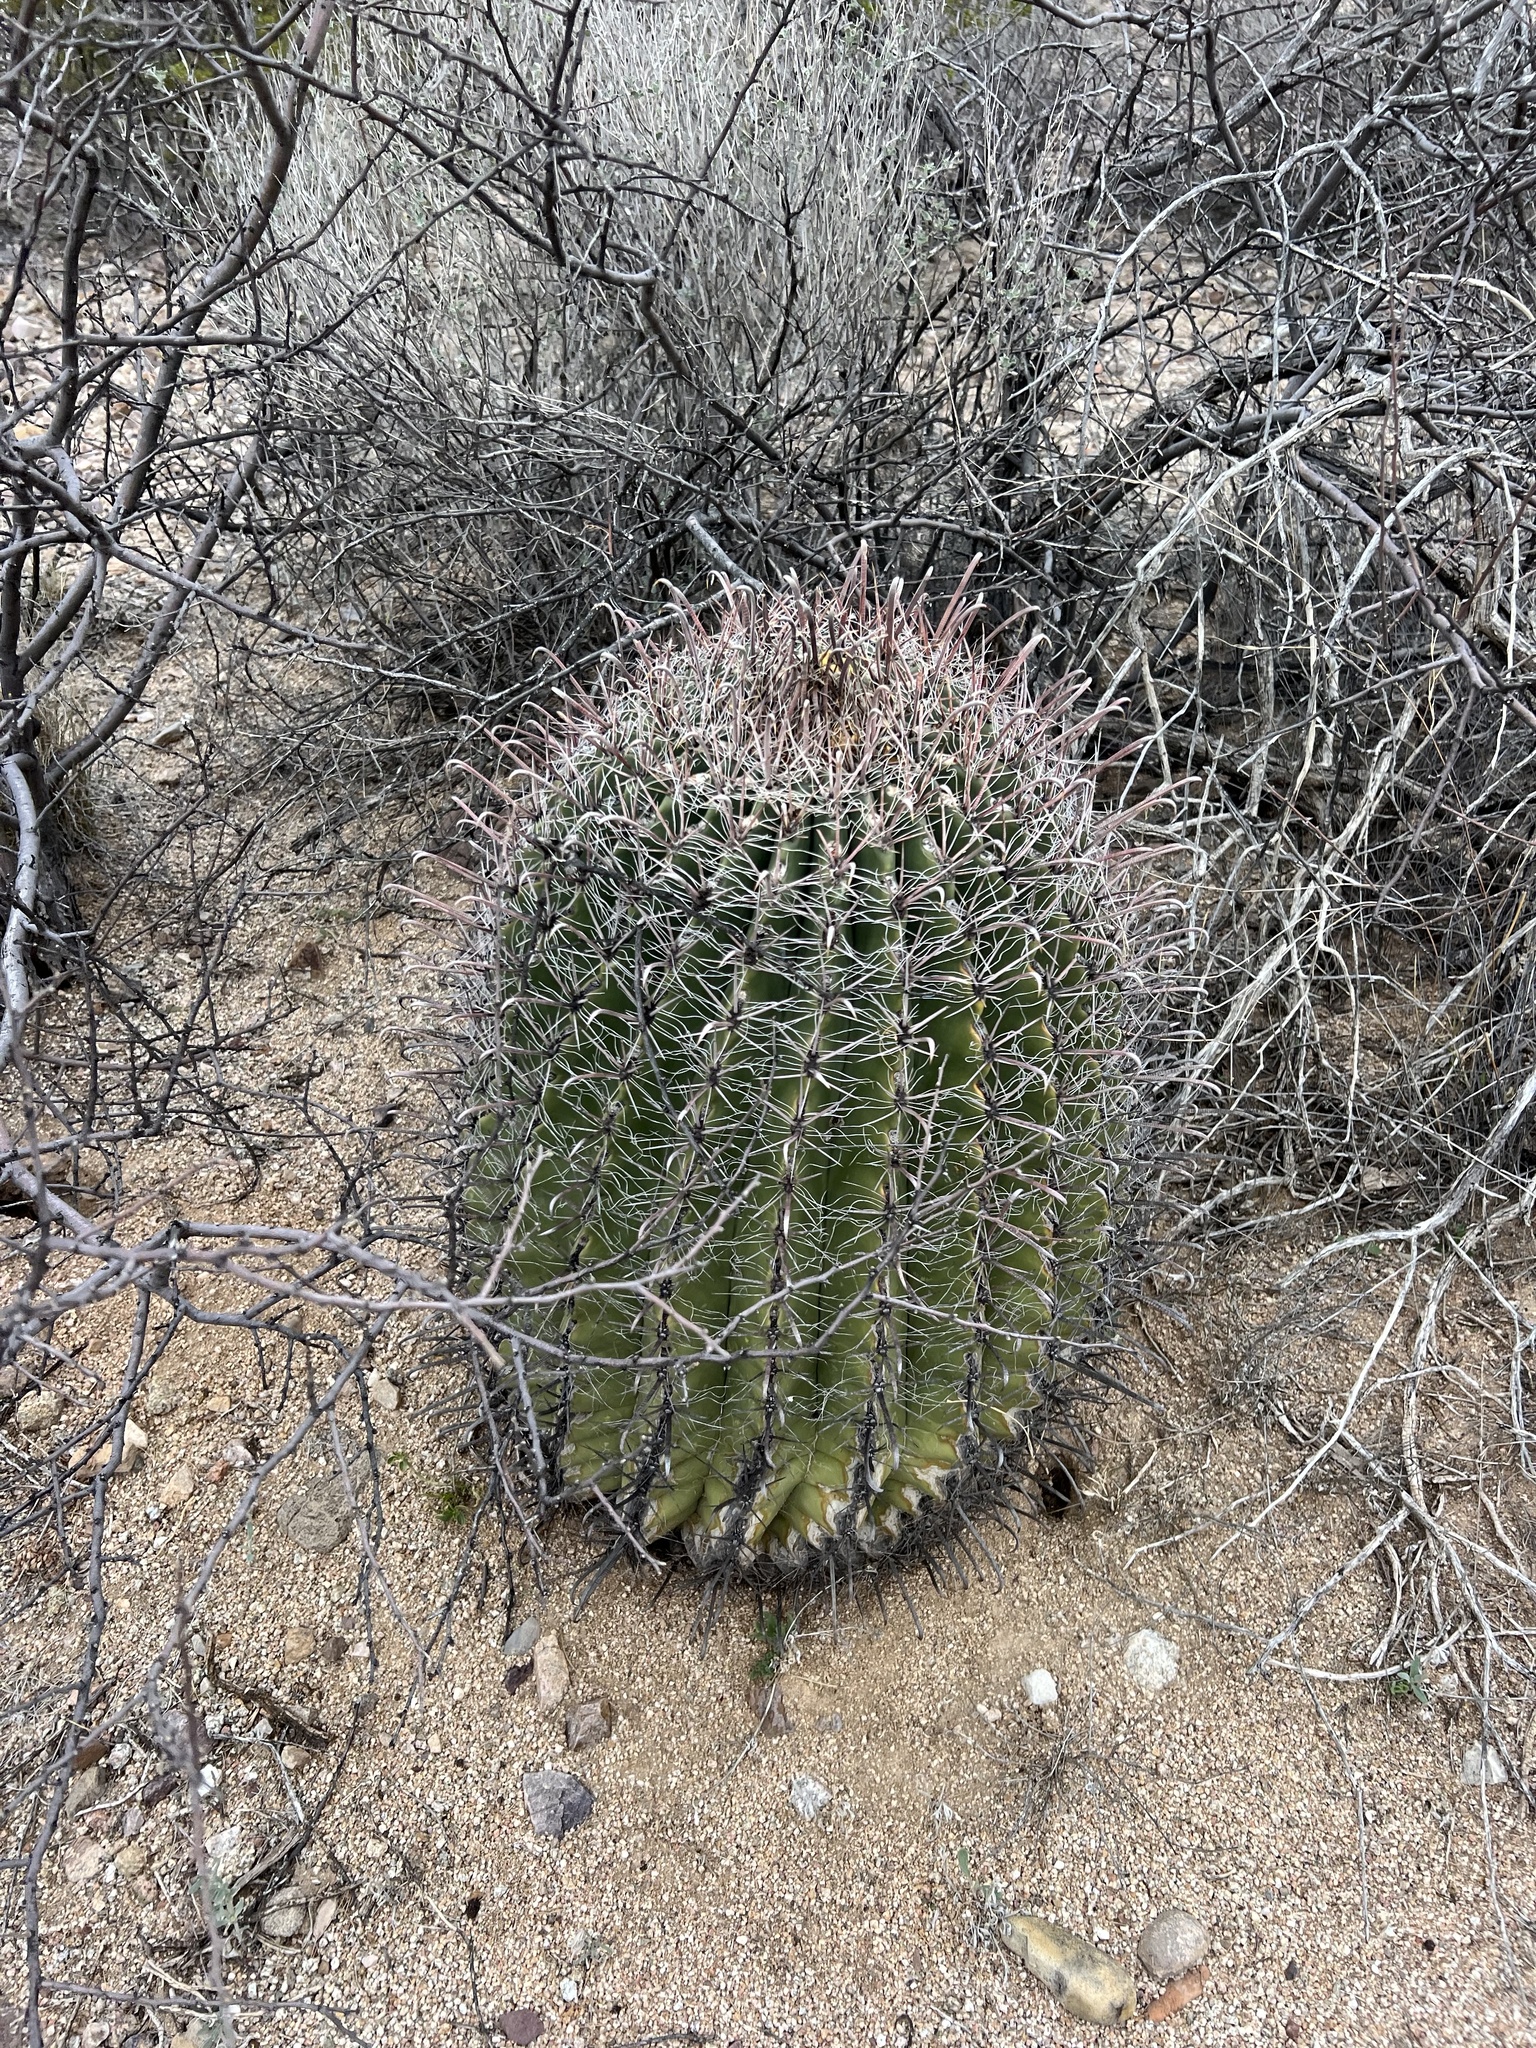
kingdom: Plantae
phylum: Tracheophyta
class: Magnoliopsida
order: Caryophyllales
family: Cactaceae
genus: Ferocactus
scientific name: Ferocactus wislizeni
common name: Candy barrel cactus
